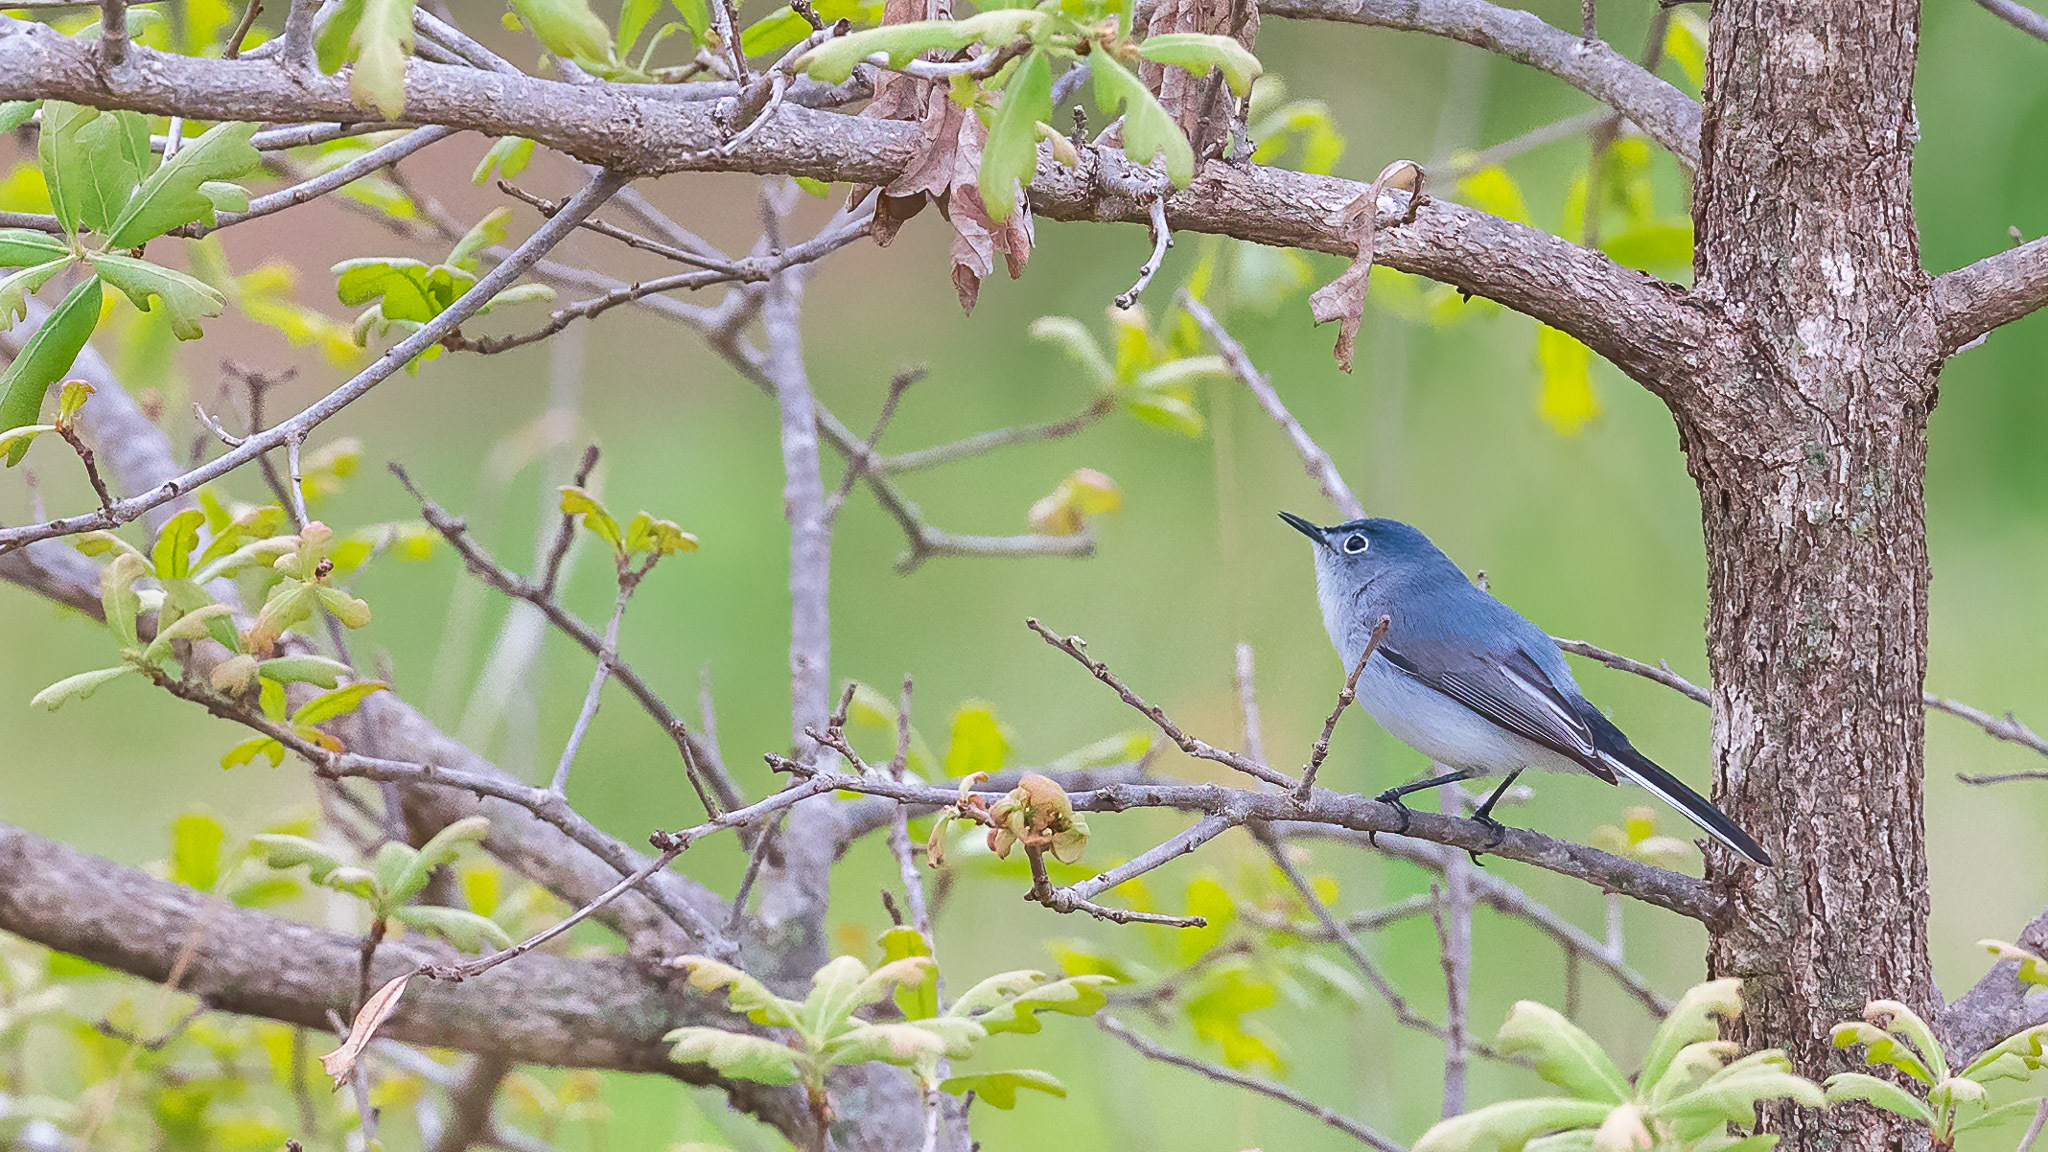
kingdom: Animalia
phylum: Chordata
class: Aves
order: Passeriformes
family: Polioptilidae
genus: Polioptila
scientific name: Polioptila caerulea
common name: Blue-gray gnatcatcher
